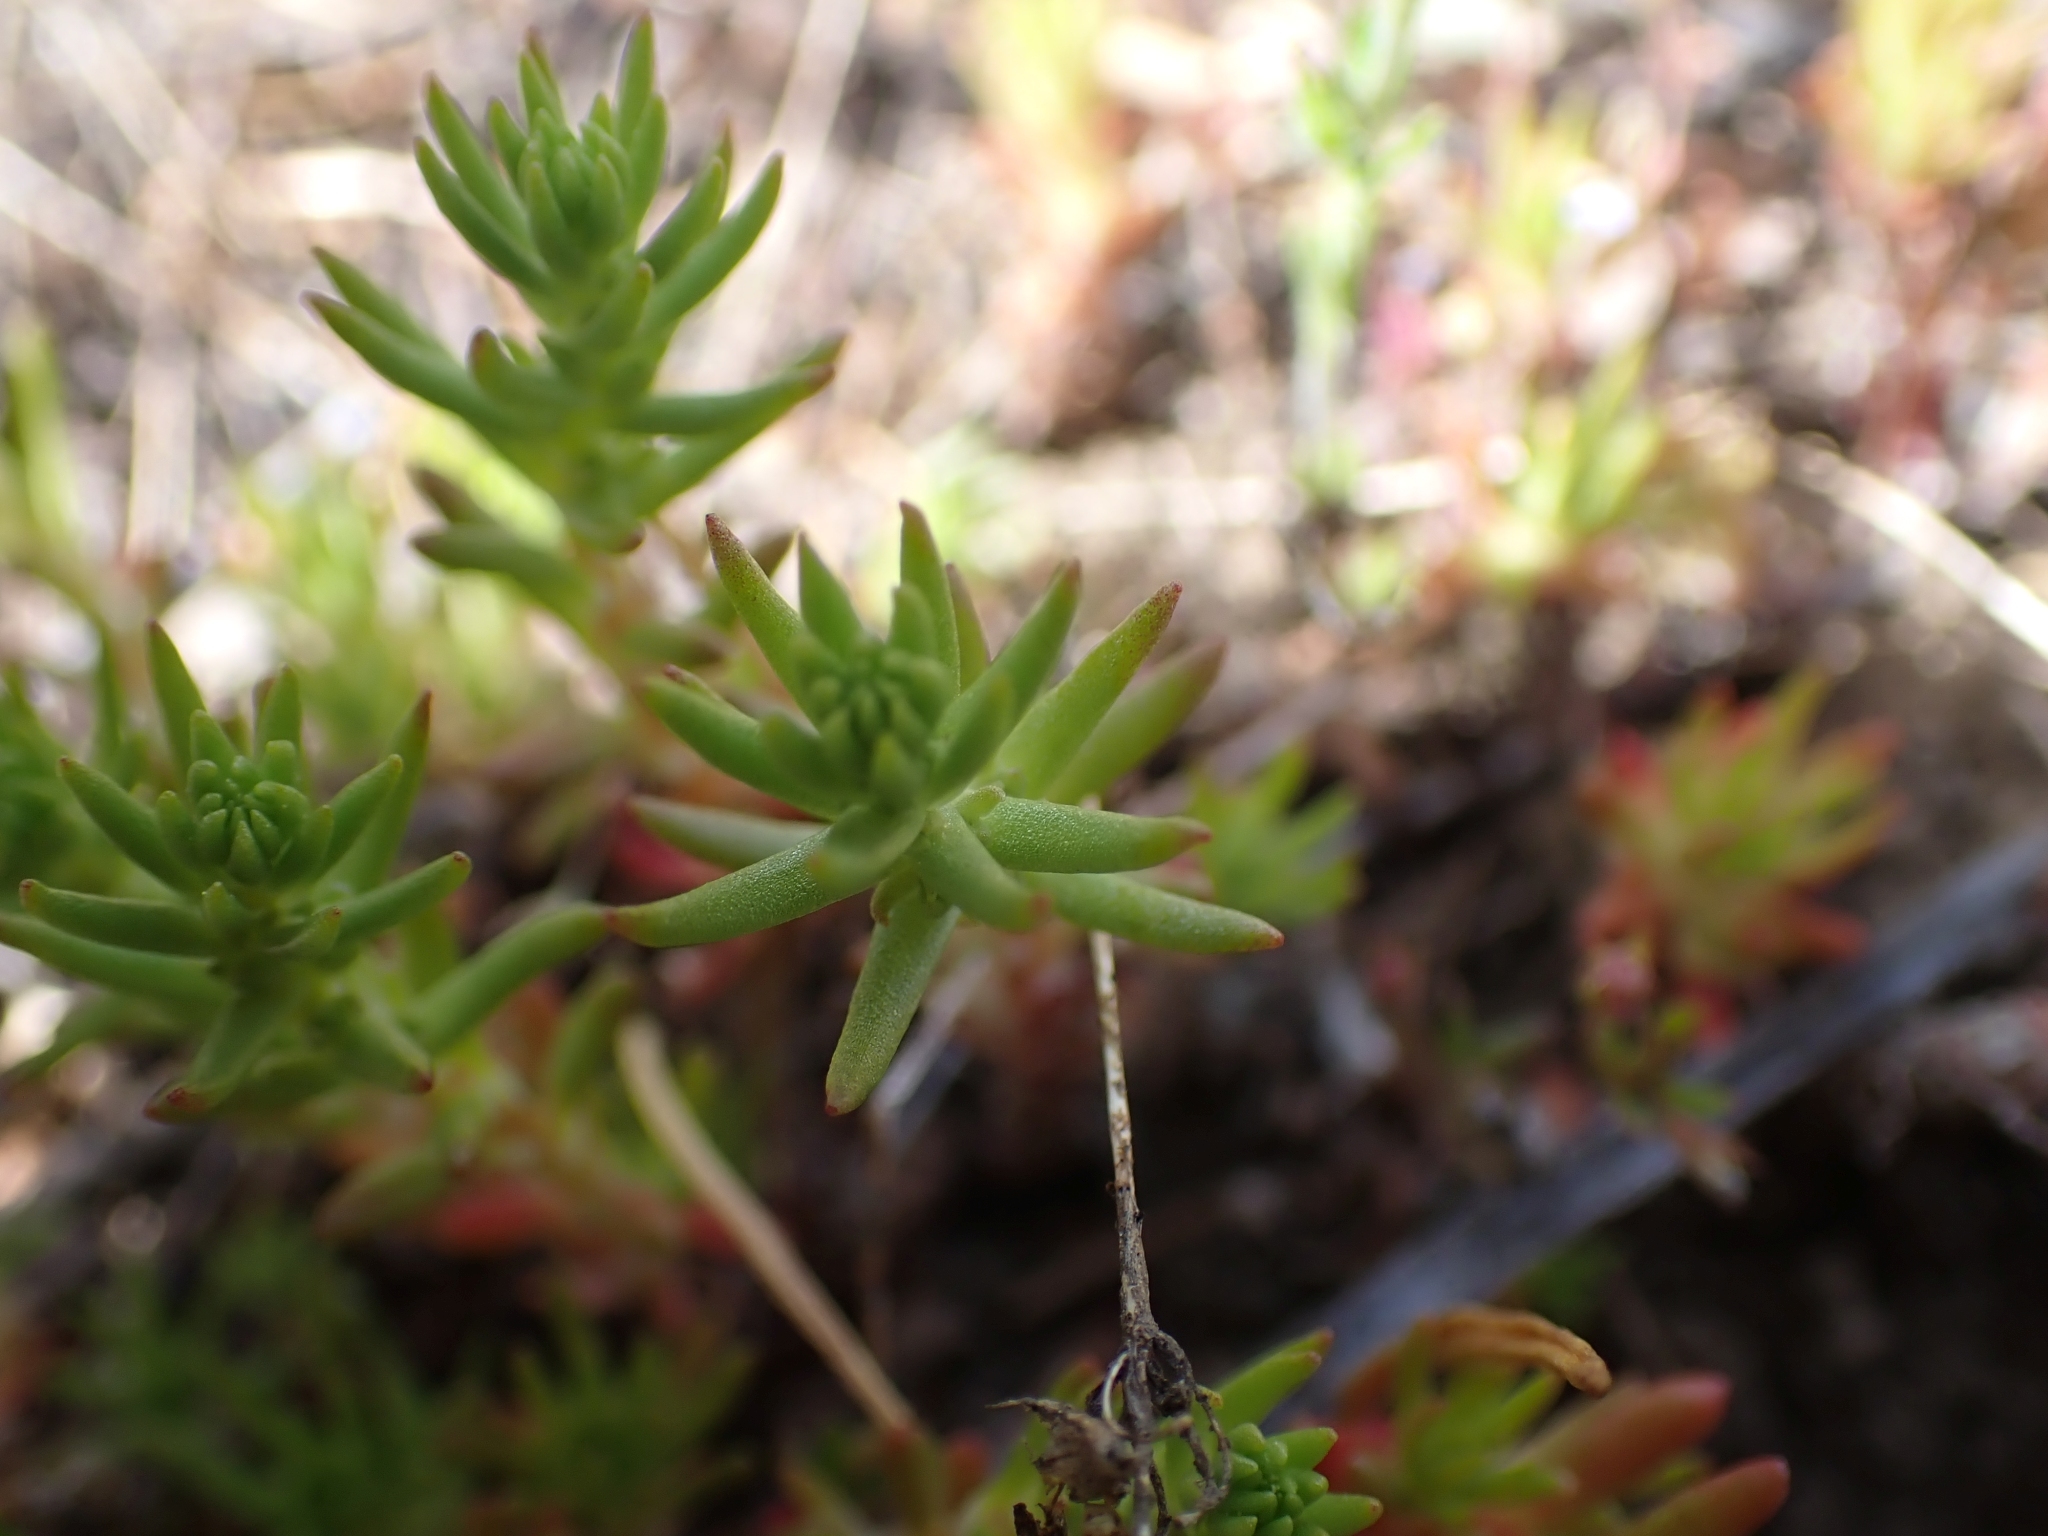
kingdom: Plantae
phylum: Tracheophyta
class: Magnoliopsida
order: Saxifragales
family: Crassulaceae
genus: Sedum
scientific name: Sedum stenopetalum
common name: Narrow-petaled stonecrop
